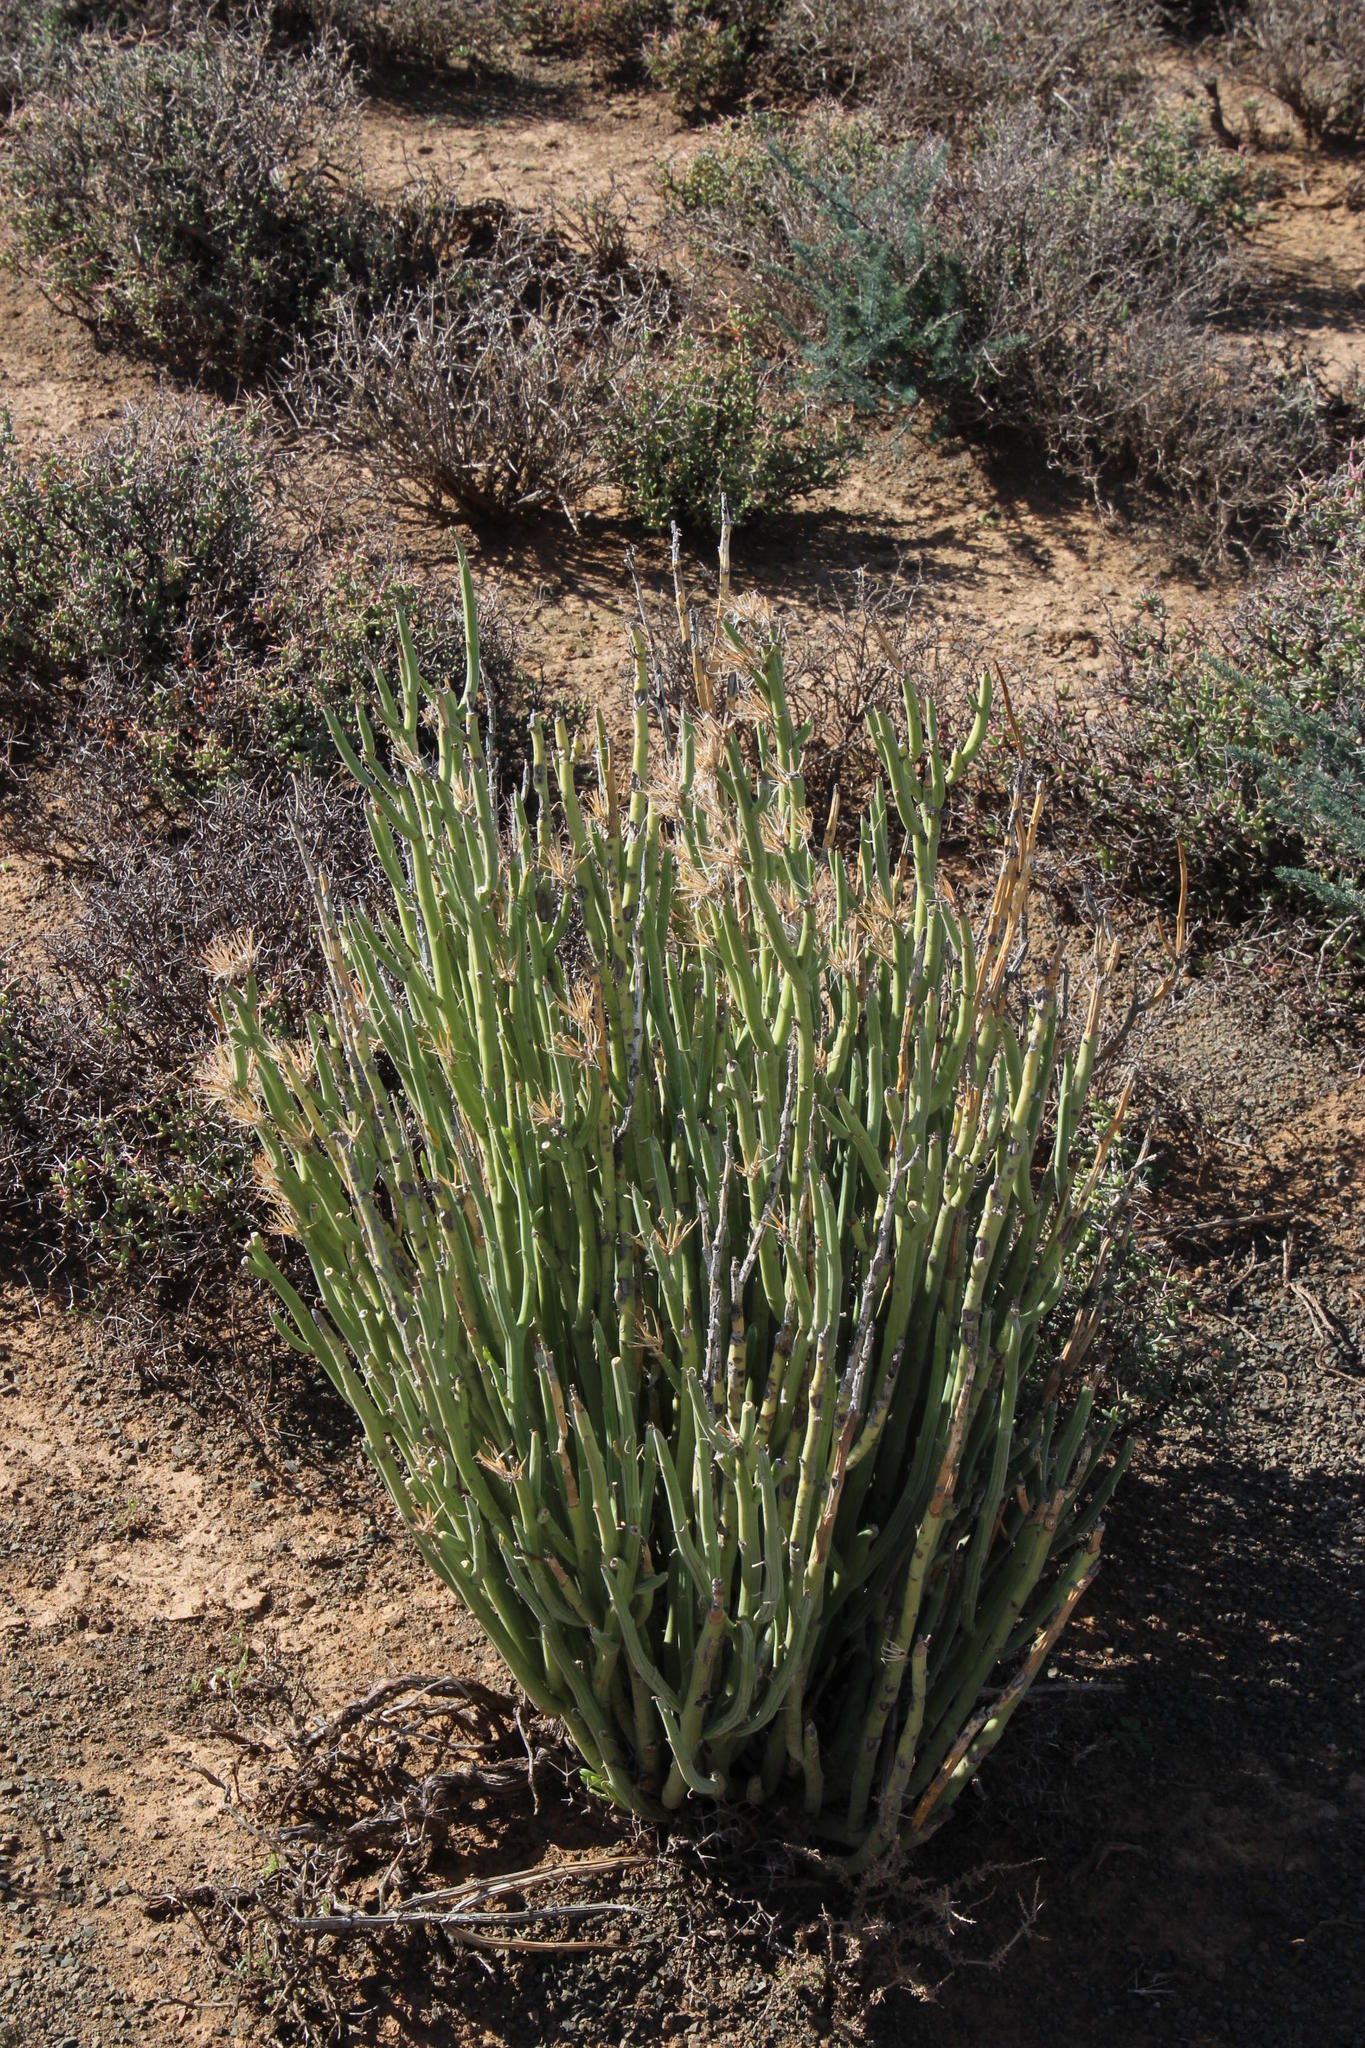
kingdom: Plantae
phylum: Tracheophyta
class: Magnoliopsida
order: Asterales
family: Asteraceae
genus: Curio
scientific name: Curio avasimontanus
